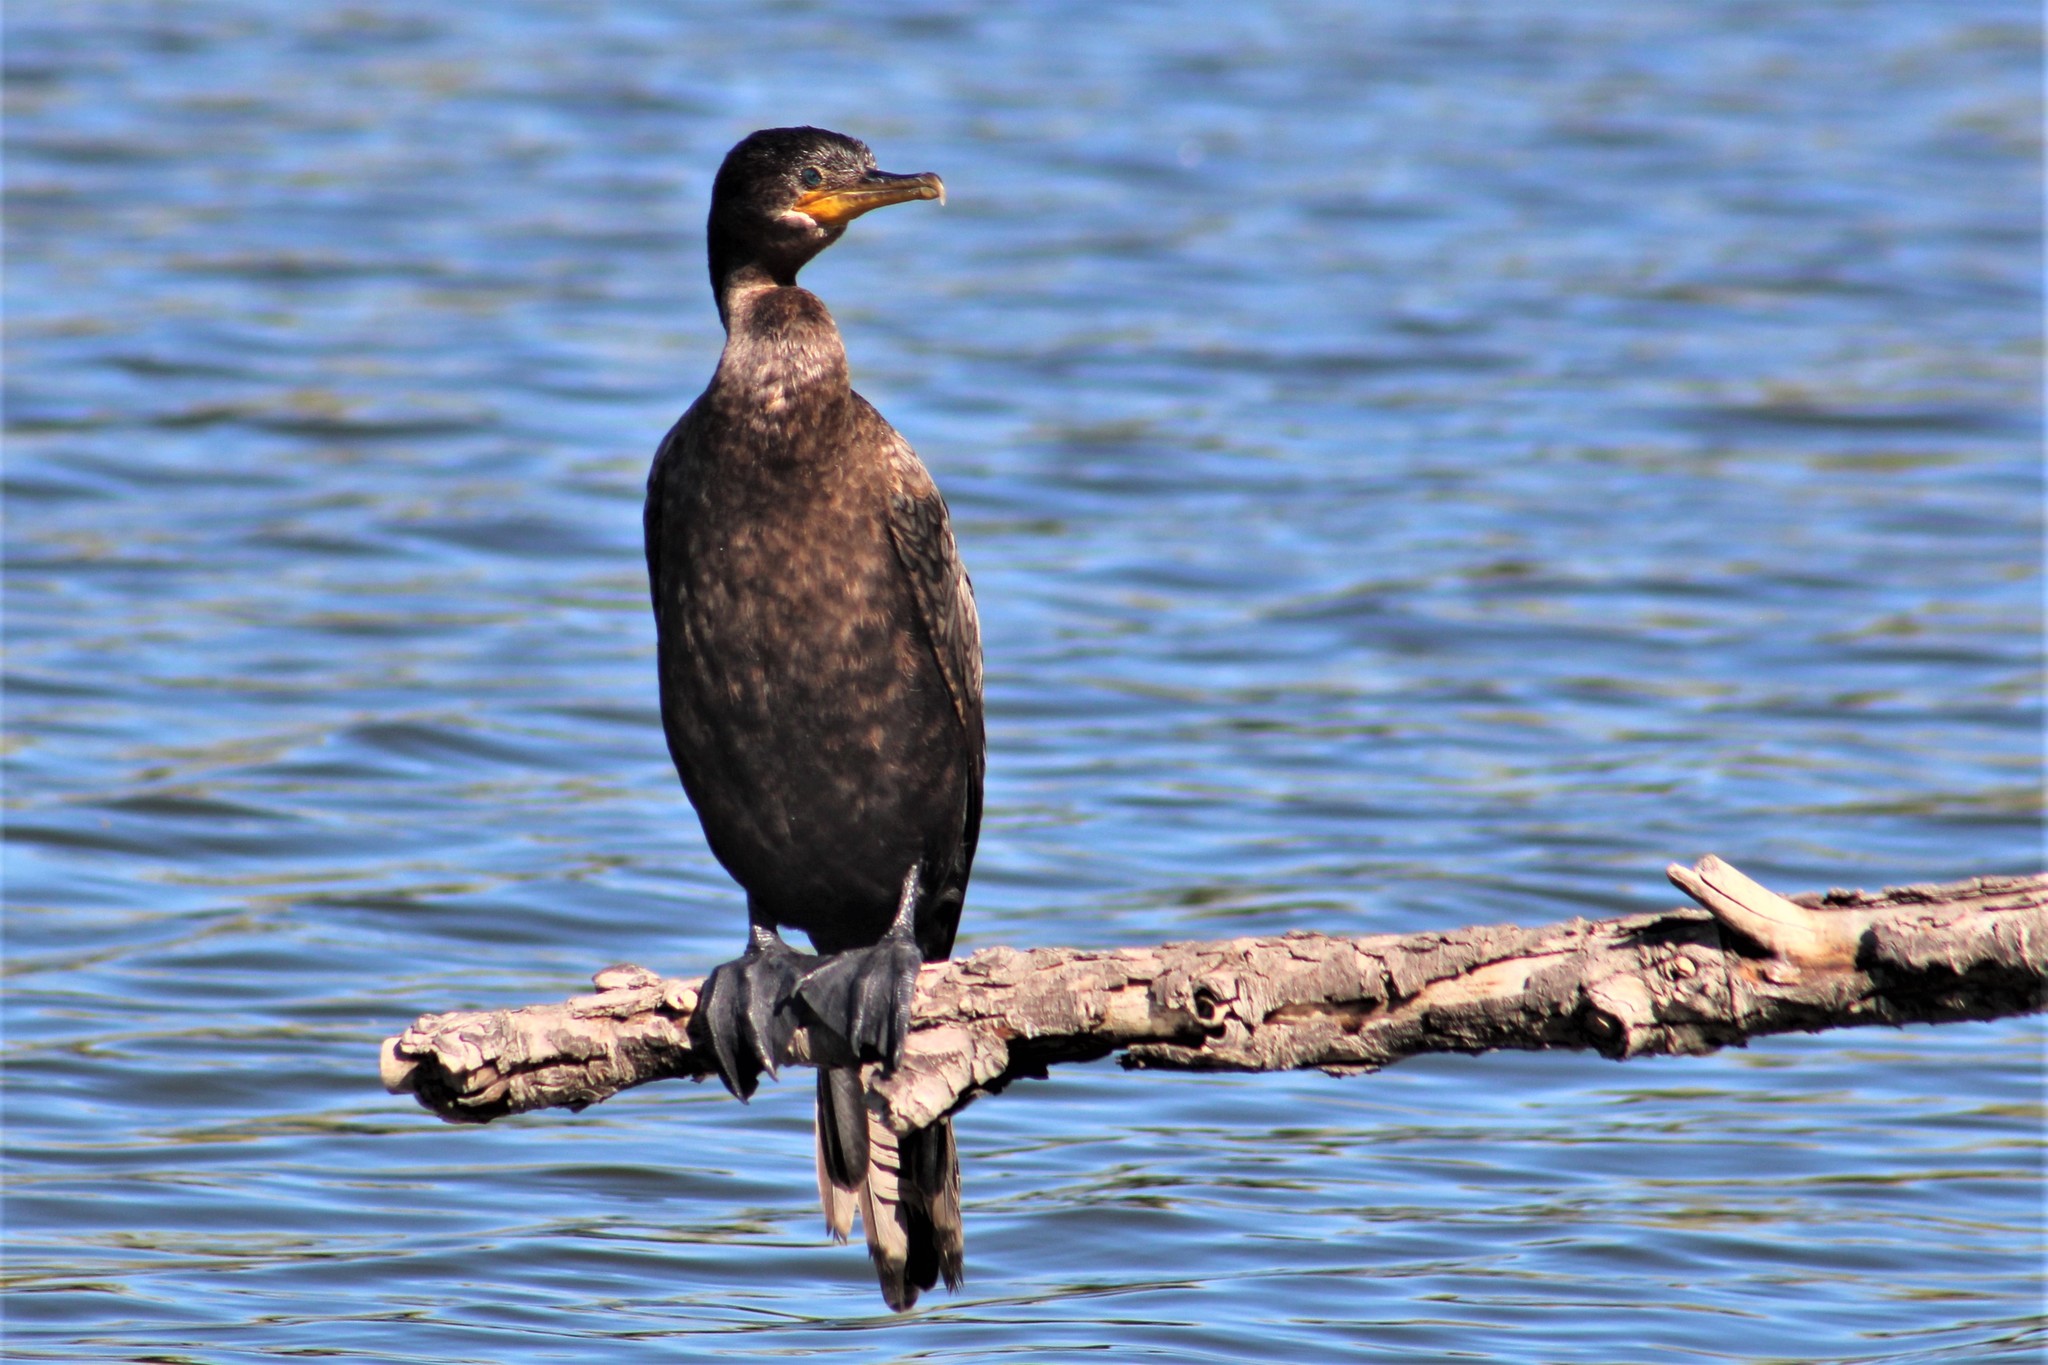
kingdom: Animalia
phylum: Chordata
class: Aves
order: Suliformes
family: Phalacrocoracidae
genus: Phalacrocorax
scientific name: Phalacrocorax brasilianus
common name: Neotropic cormorant
